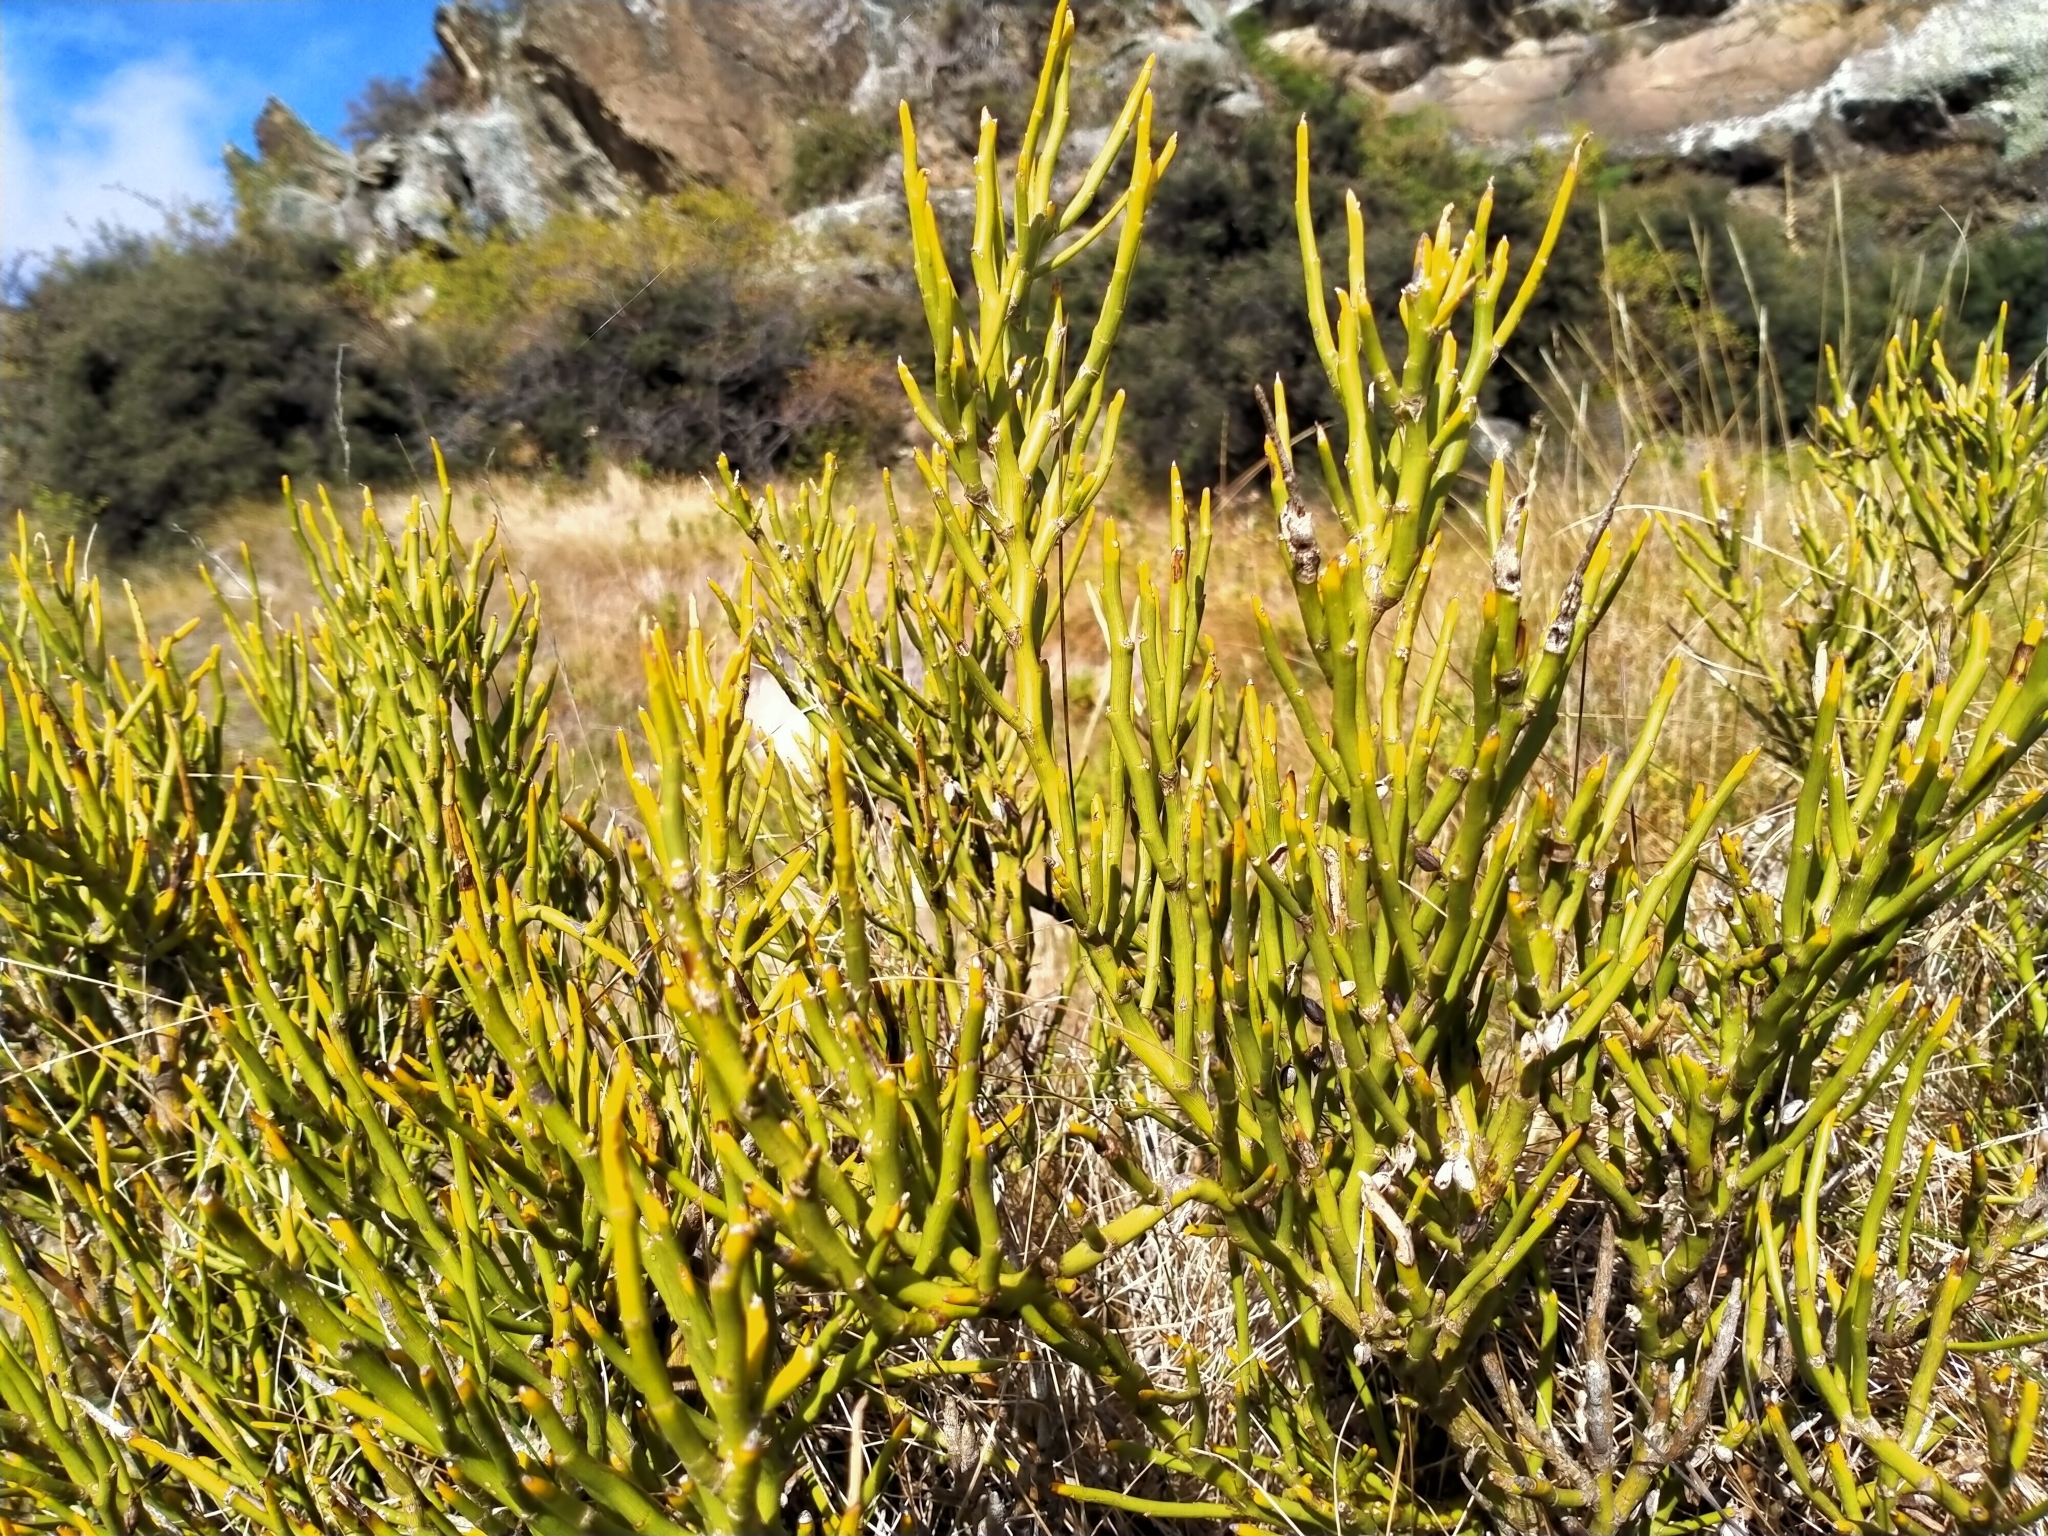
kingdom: Plantae
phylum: Tracheophyta
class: Magnoliopsida
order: Fabales
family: Fabaceae
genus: Carmichaelia
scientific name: Carmichaelia petriei
